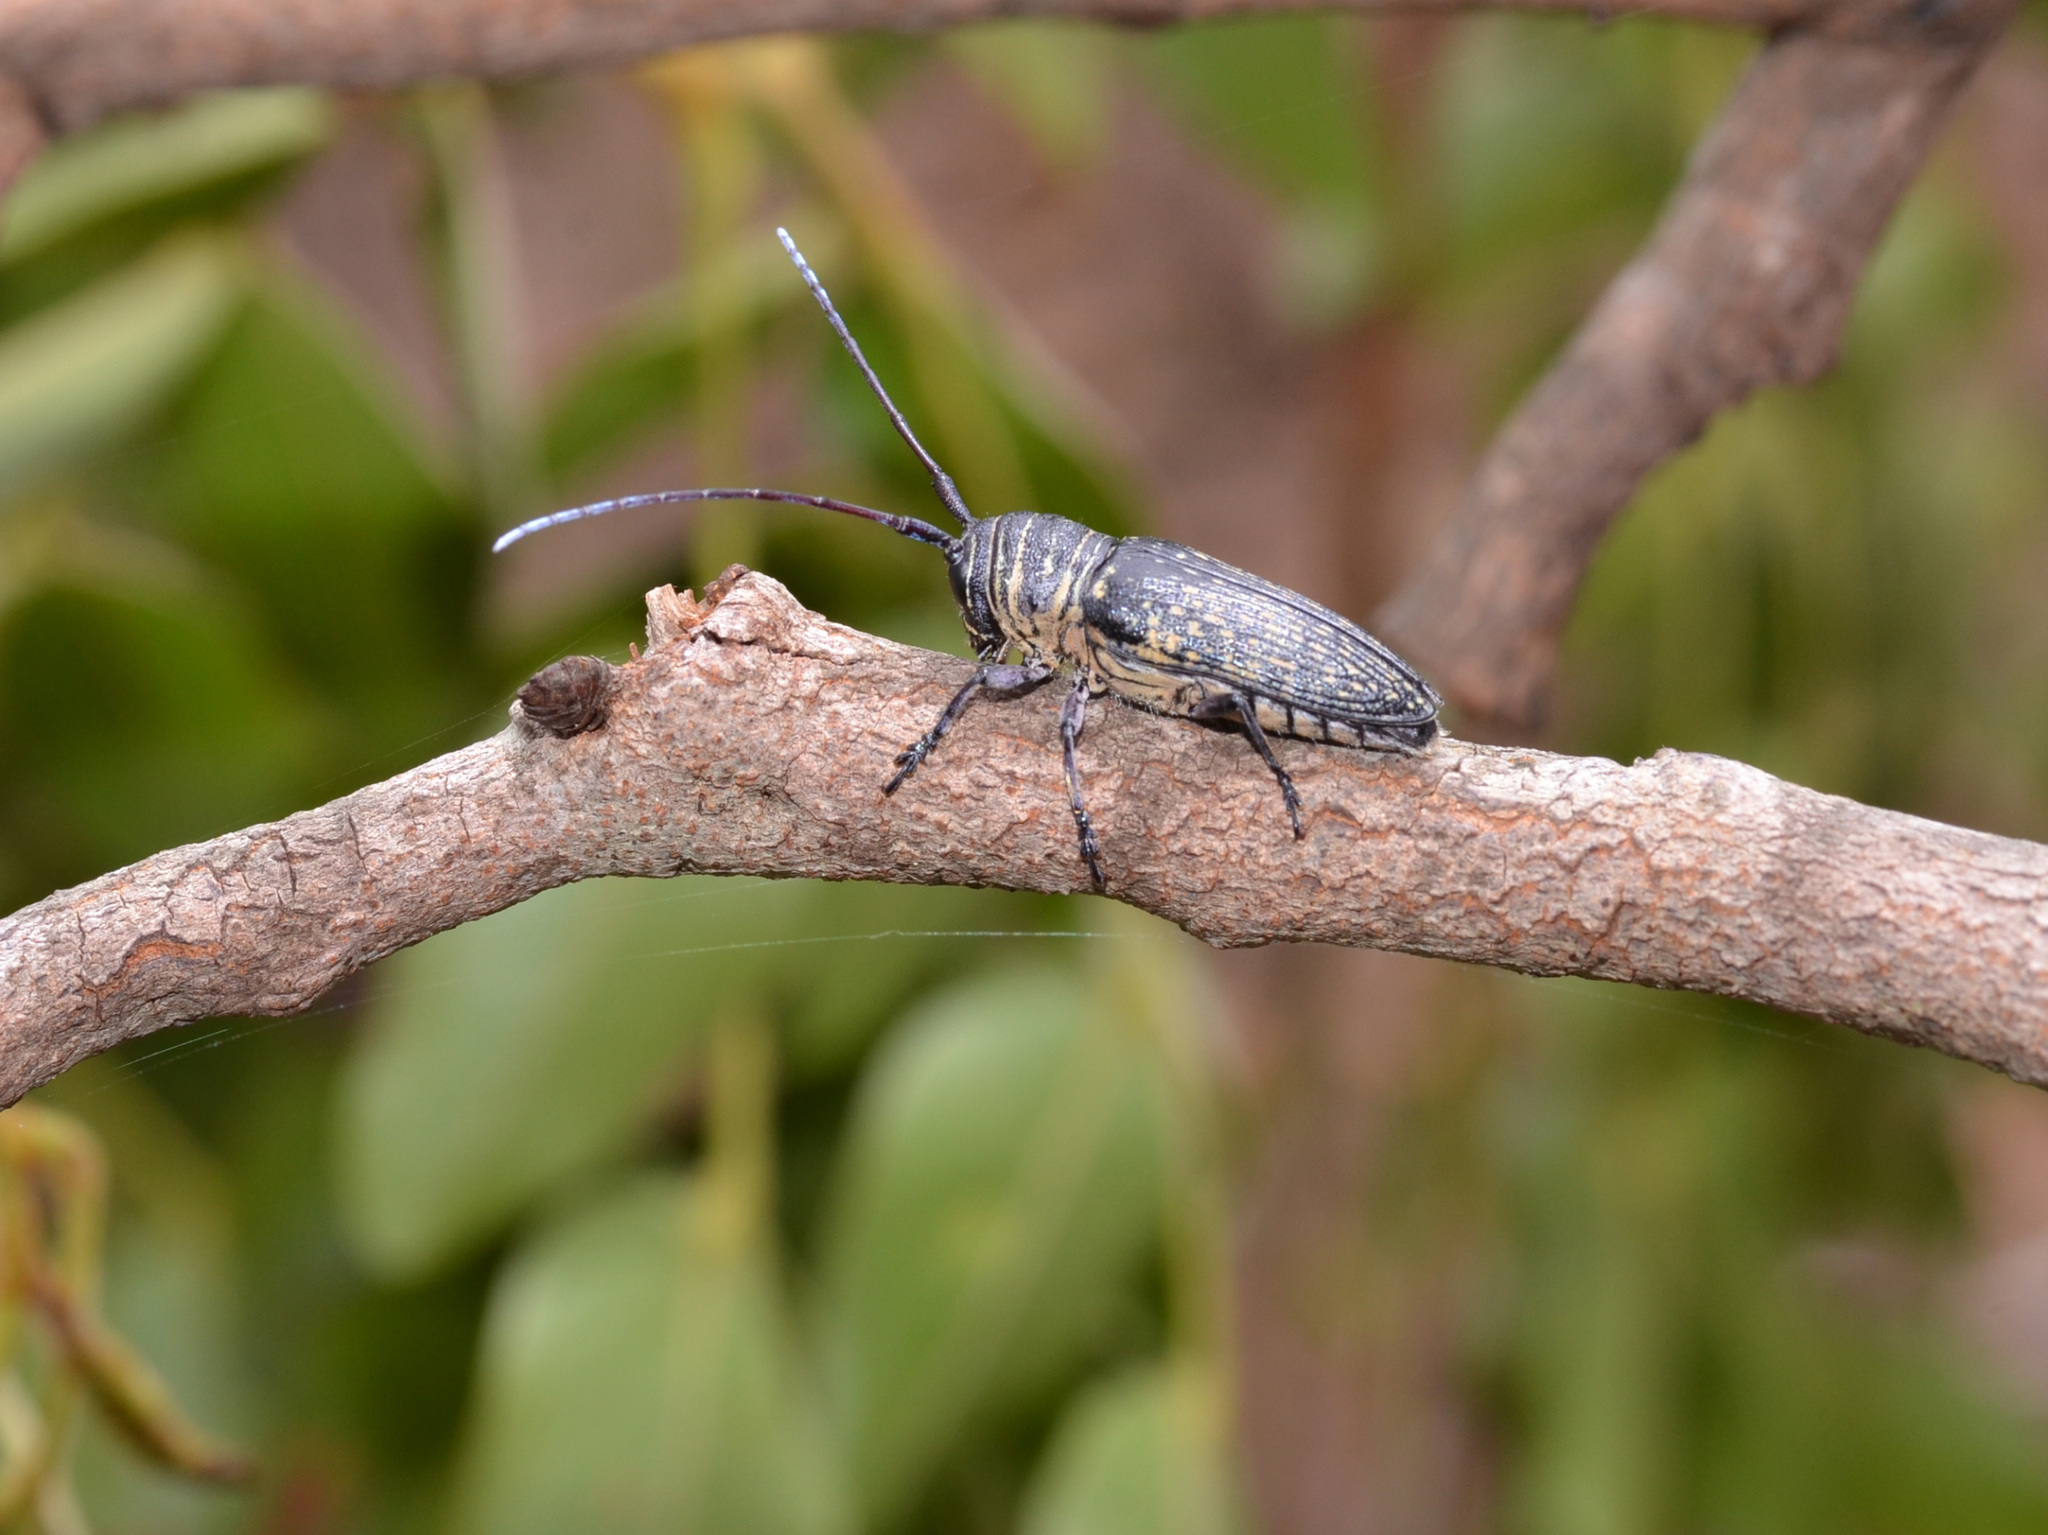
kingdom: Animalia
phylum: Arthropoda
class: Insecta
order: Coleoptera
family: Cerambycidae
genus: Zographus
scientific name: Zographus lineatus
